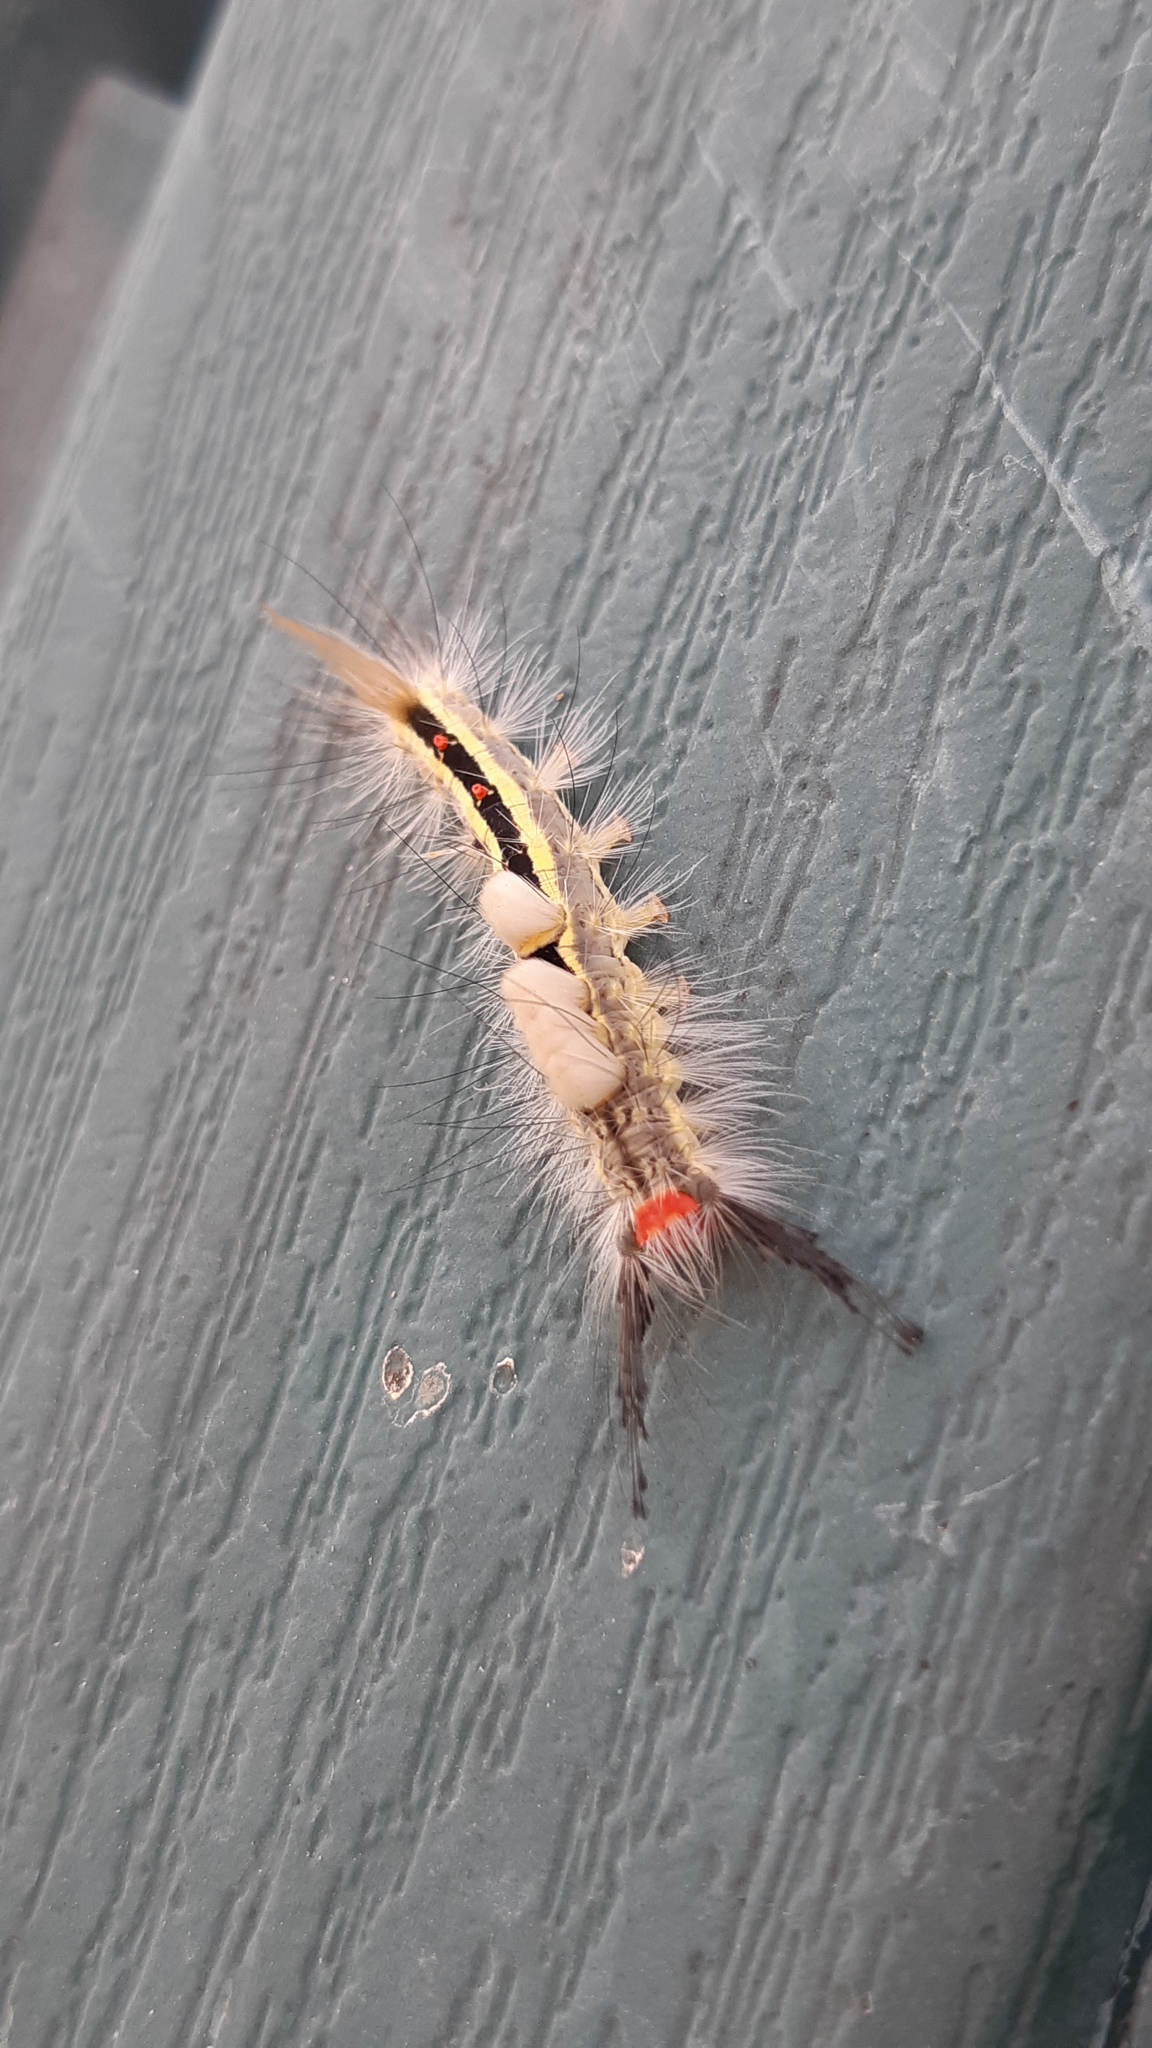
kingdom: Animalia
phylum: Arthropoda
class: Insecta
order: Lepidoptera
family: Erebidae
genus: Orgyia
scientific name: Orgyia leucostigma
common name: White-marked tussock moth
